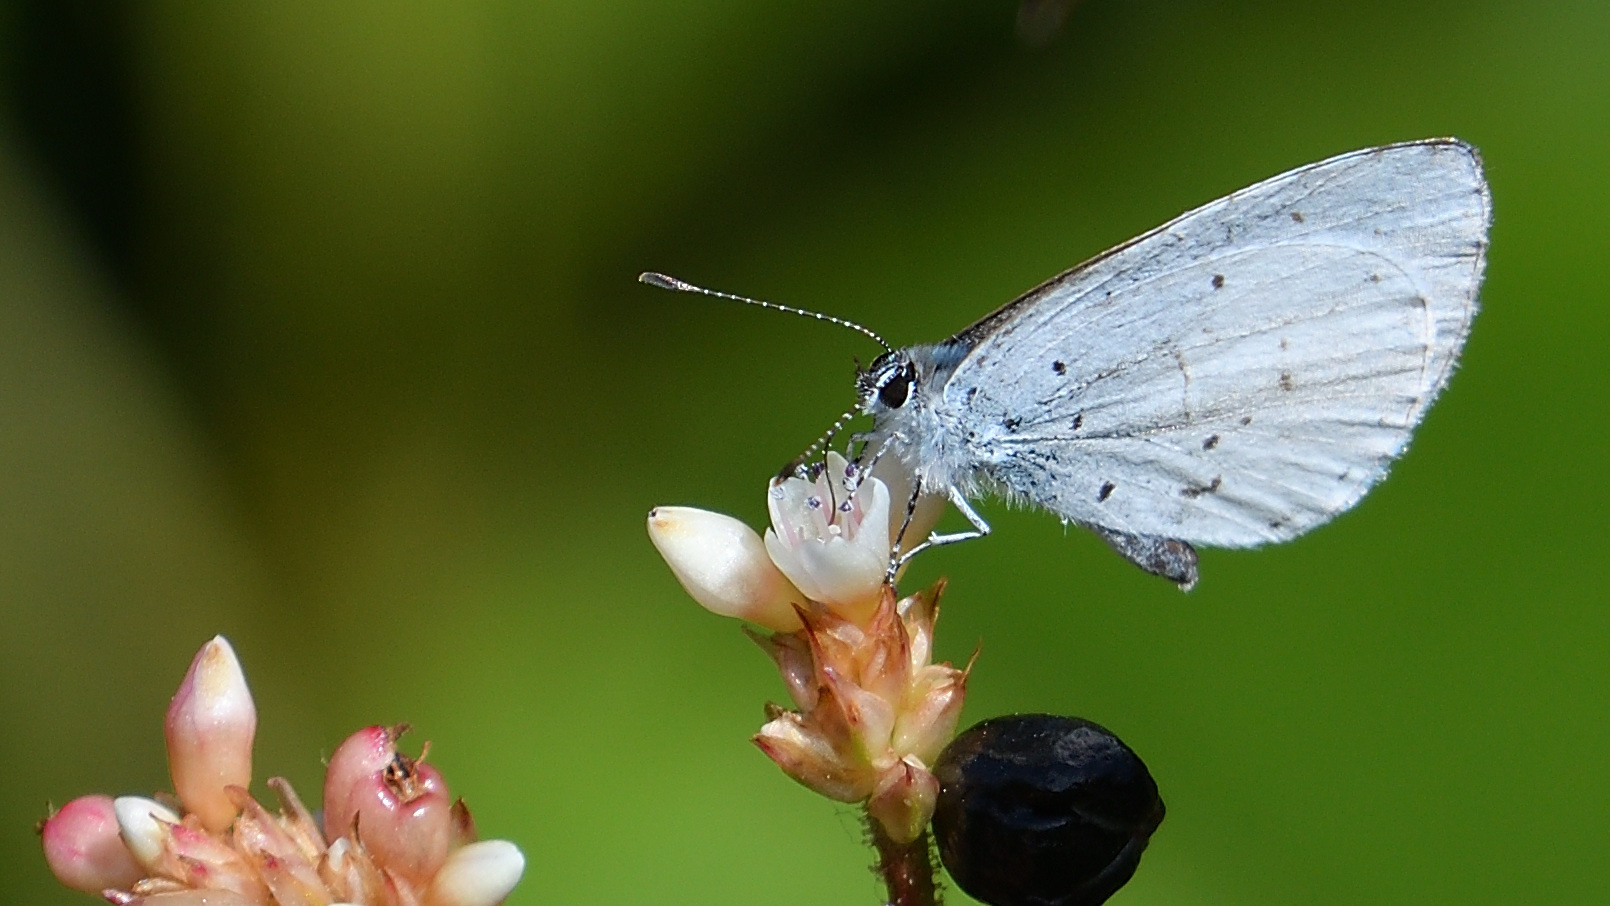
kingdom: Animalia
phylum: Arthropoda
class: Insecta
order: Lepidoptera
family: Lycaenidae
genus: Udara
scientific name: Udara akasa
